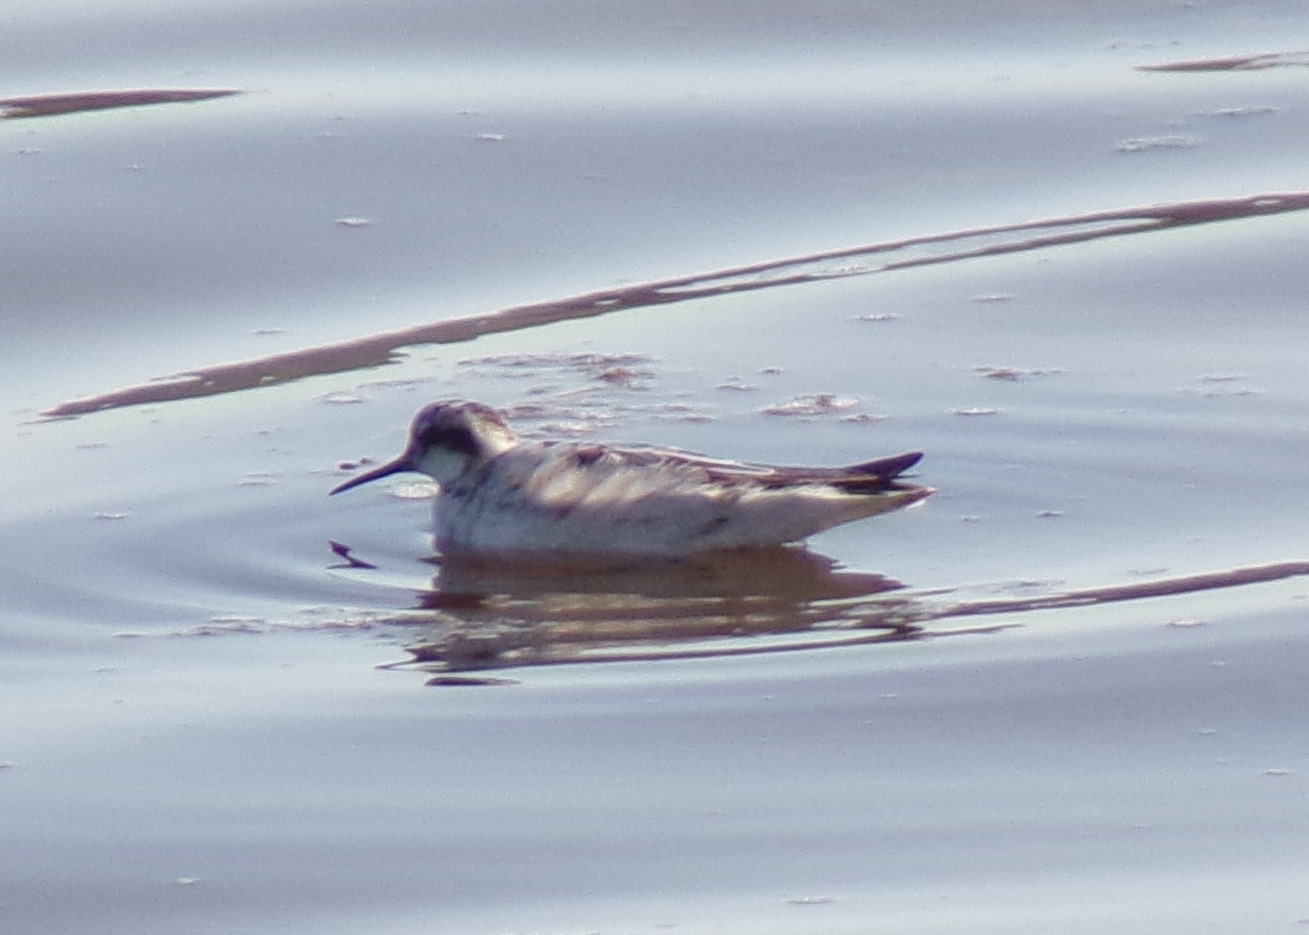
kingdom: Animalia
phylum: Chordata
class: Aves
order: Charadriiformes
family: Scolopacidae
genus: Phalaropus
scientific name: Phalaropus lobatus
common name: Red-necked phalarope
